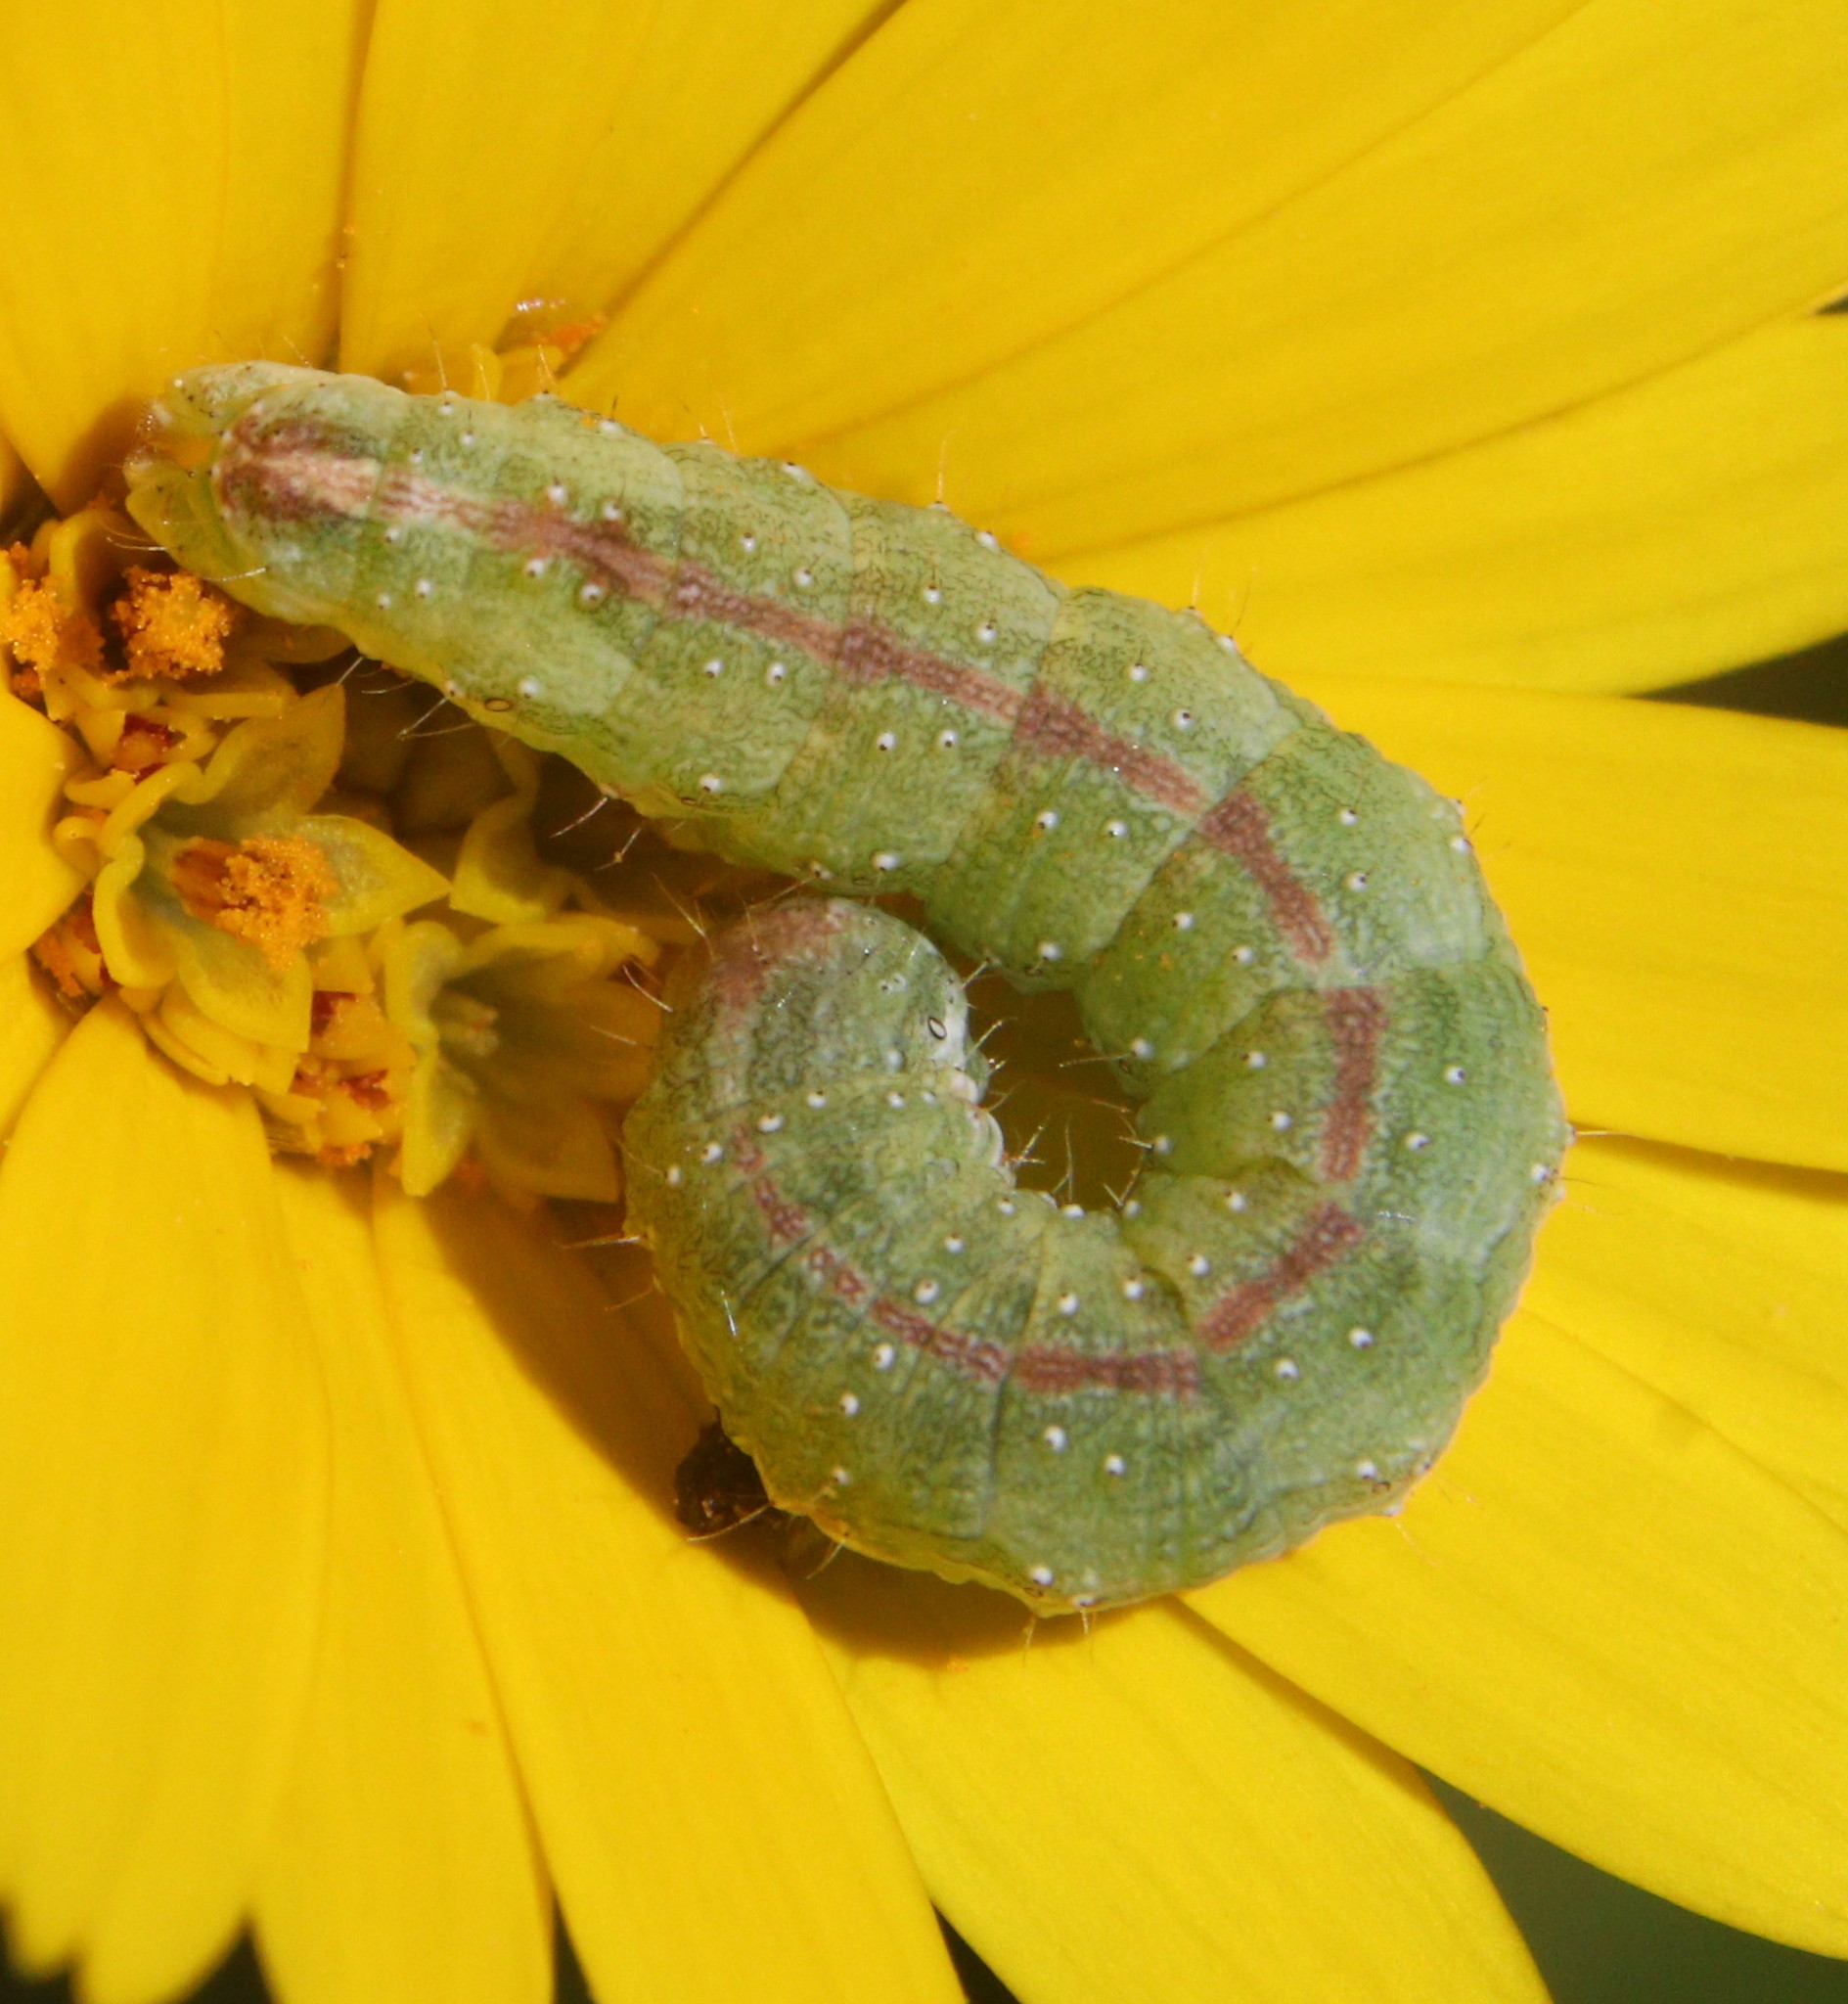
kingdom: Animalia
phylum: Arthropoda
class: Insecta
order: Lepidoptera
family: Noctuidae
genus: Cucullia
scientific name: Cucullia calendulae
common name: Marigold shark
